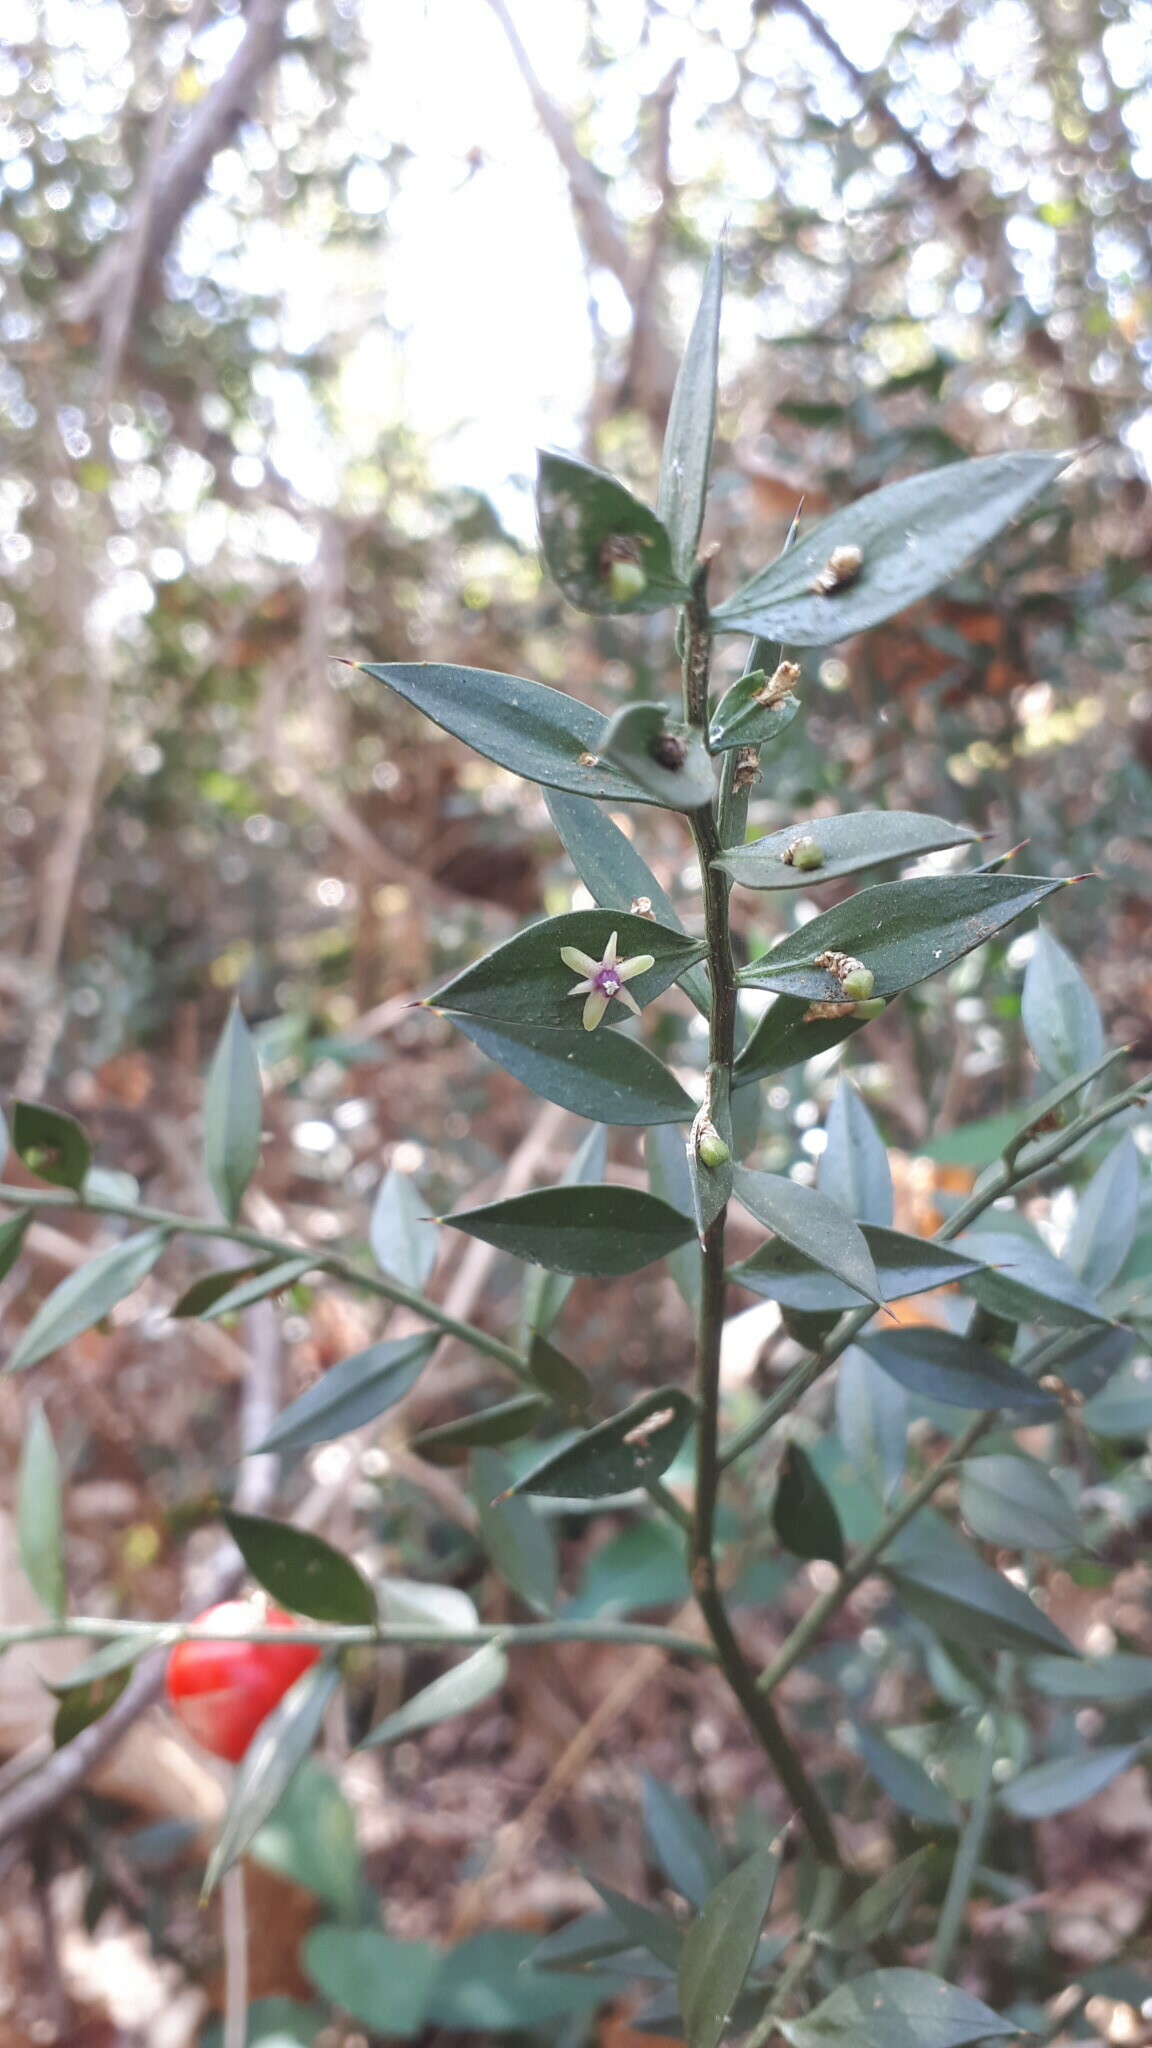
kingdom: Plantae
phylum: Tracheophyta
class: Liliopsida
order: Asparagales
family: Asparagaceae
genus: Ruscus
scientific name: Ruscus aculeatus
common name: Butcher's-broom
